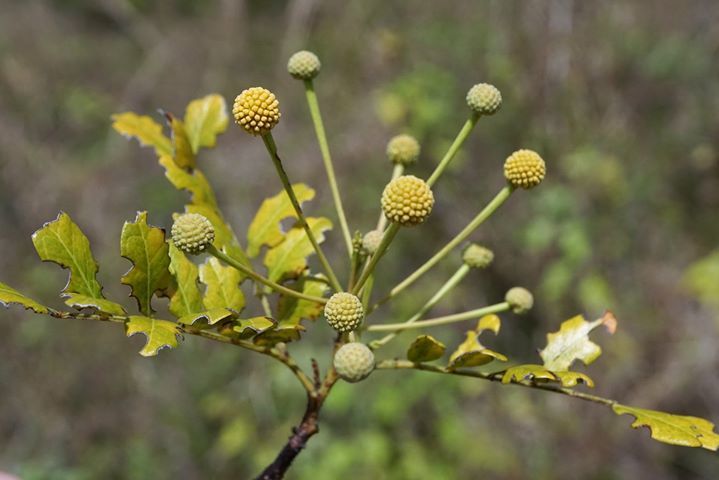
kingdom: Plantae
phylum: Tracheophyta
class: Magnoliopsida
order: Fabales
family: Fabaceae
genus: Vachellia
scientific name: Vachellia choriophylla
